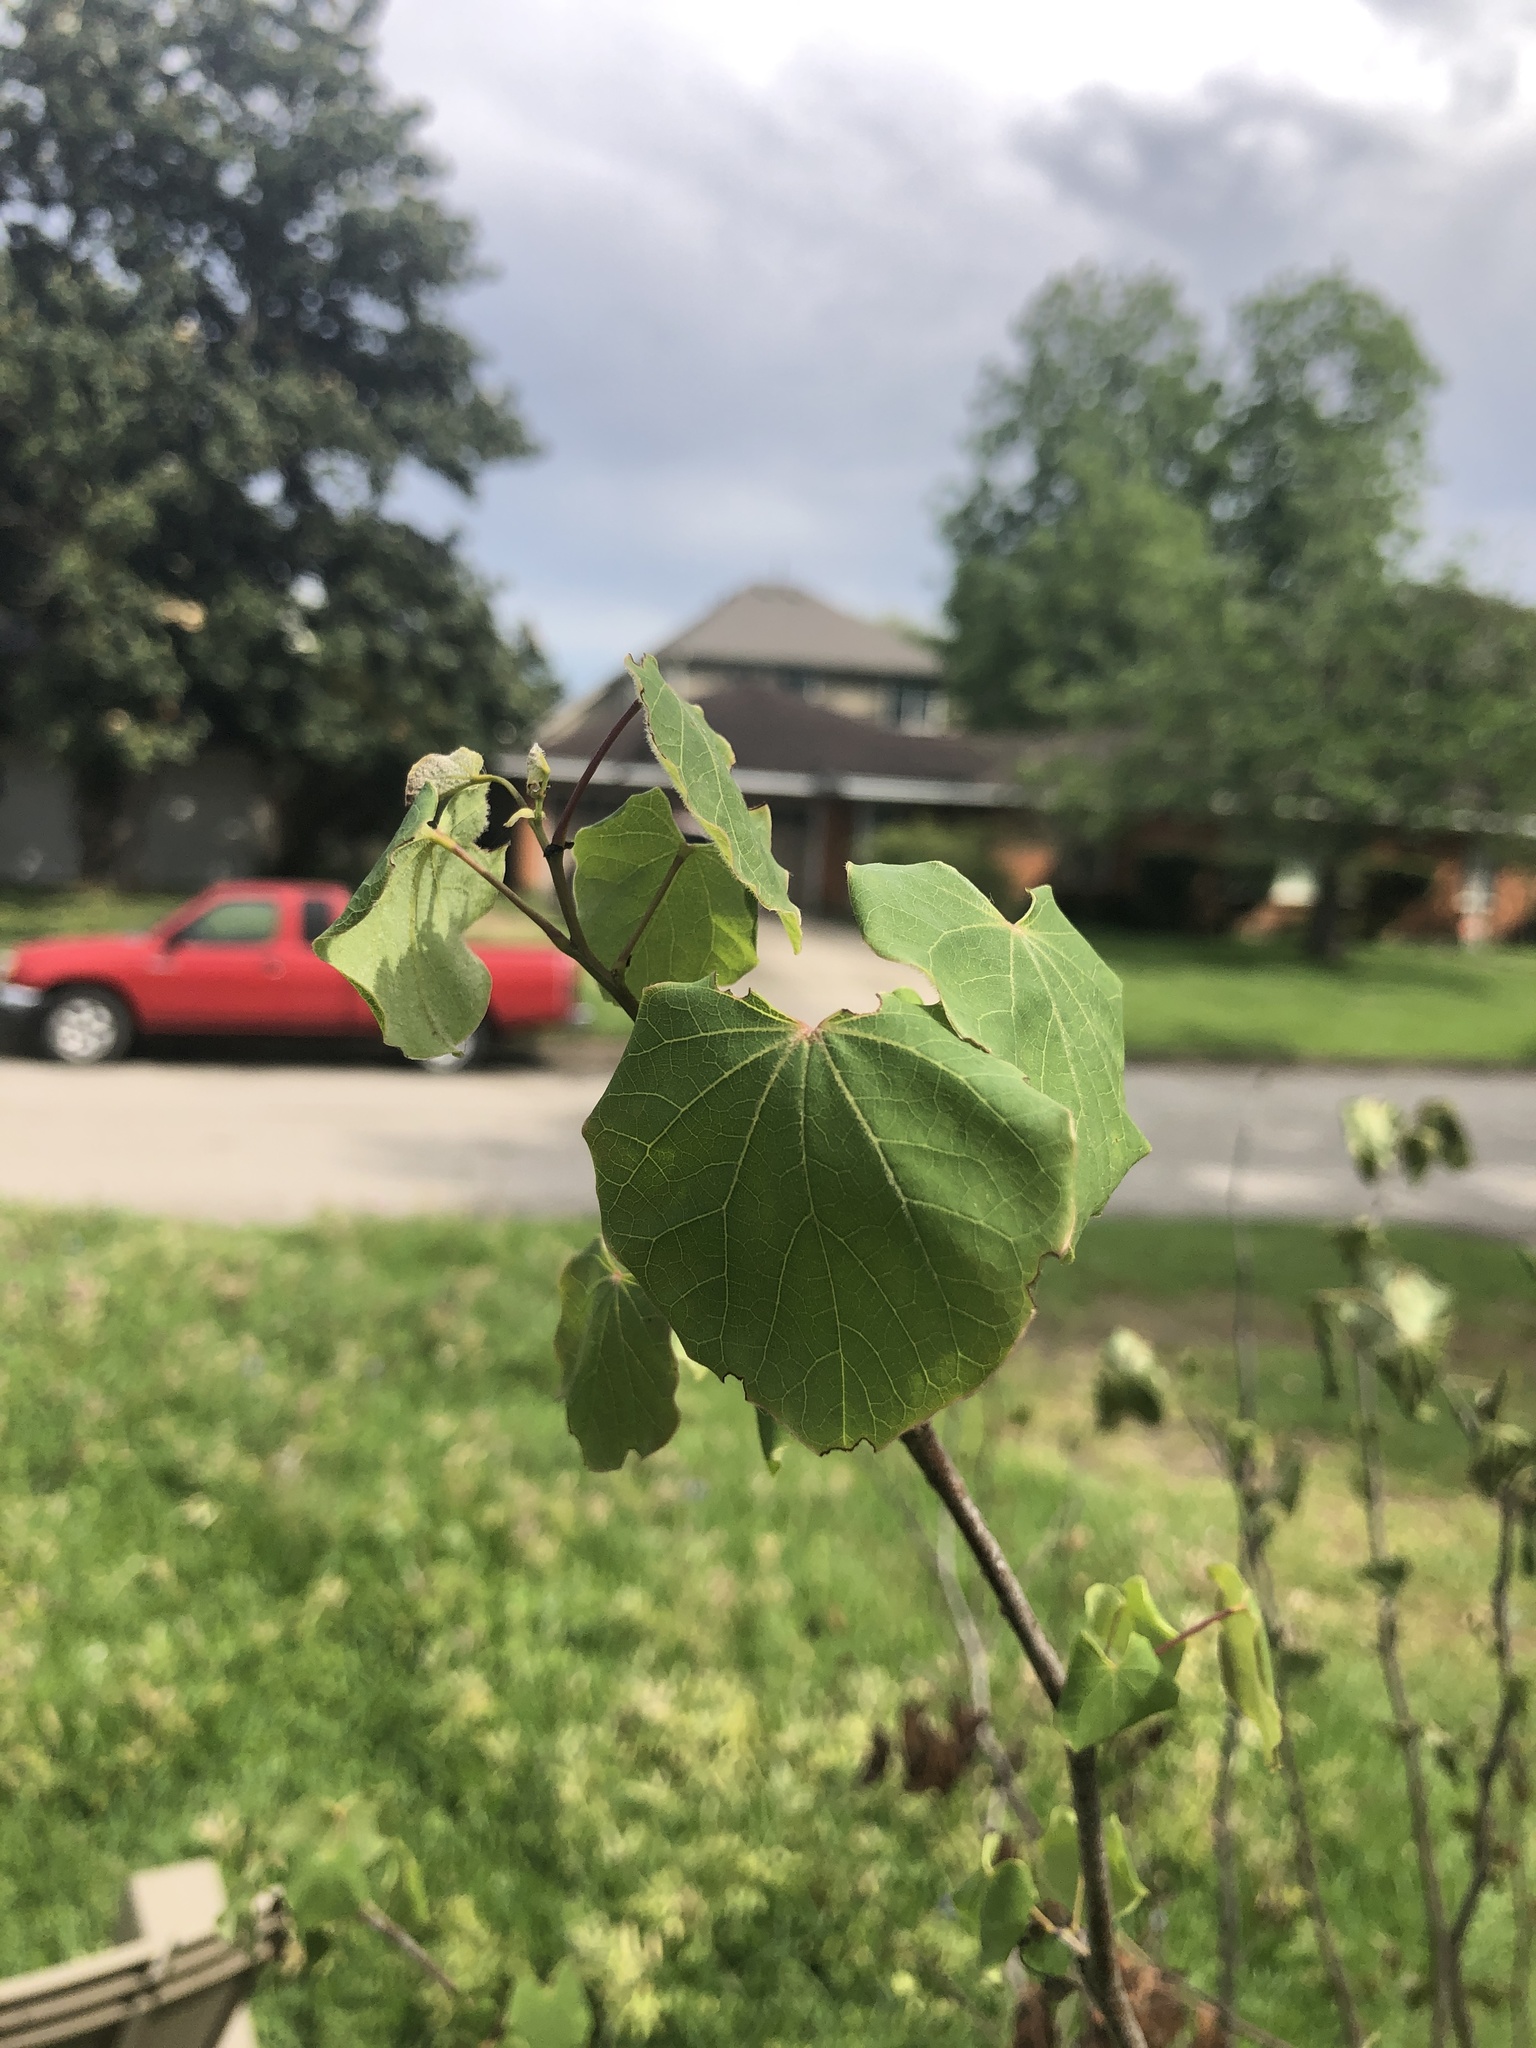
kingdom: Plantae
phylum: Tracheophyta
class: Magnoliopsida
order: Fabales
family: Fabaceae
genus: Cercis
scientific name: Cercis canadensis
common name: Eastern redbud
